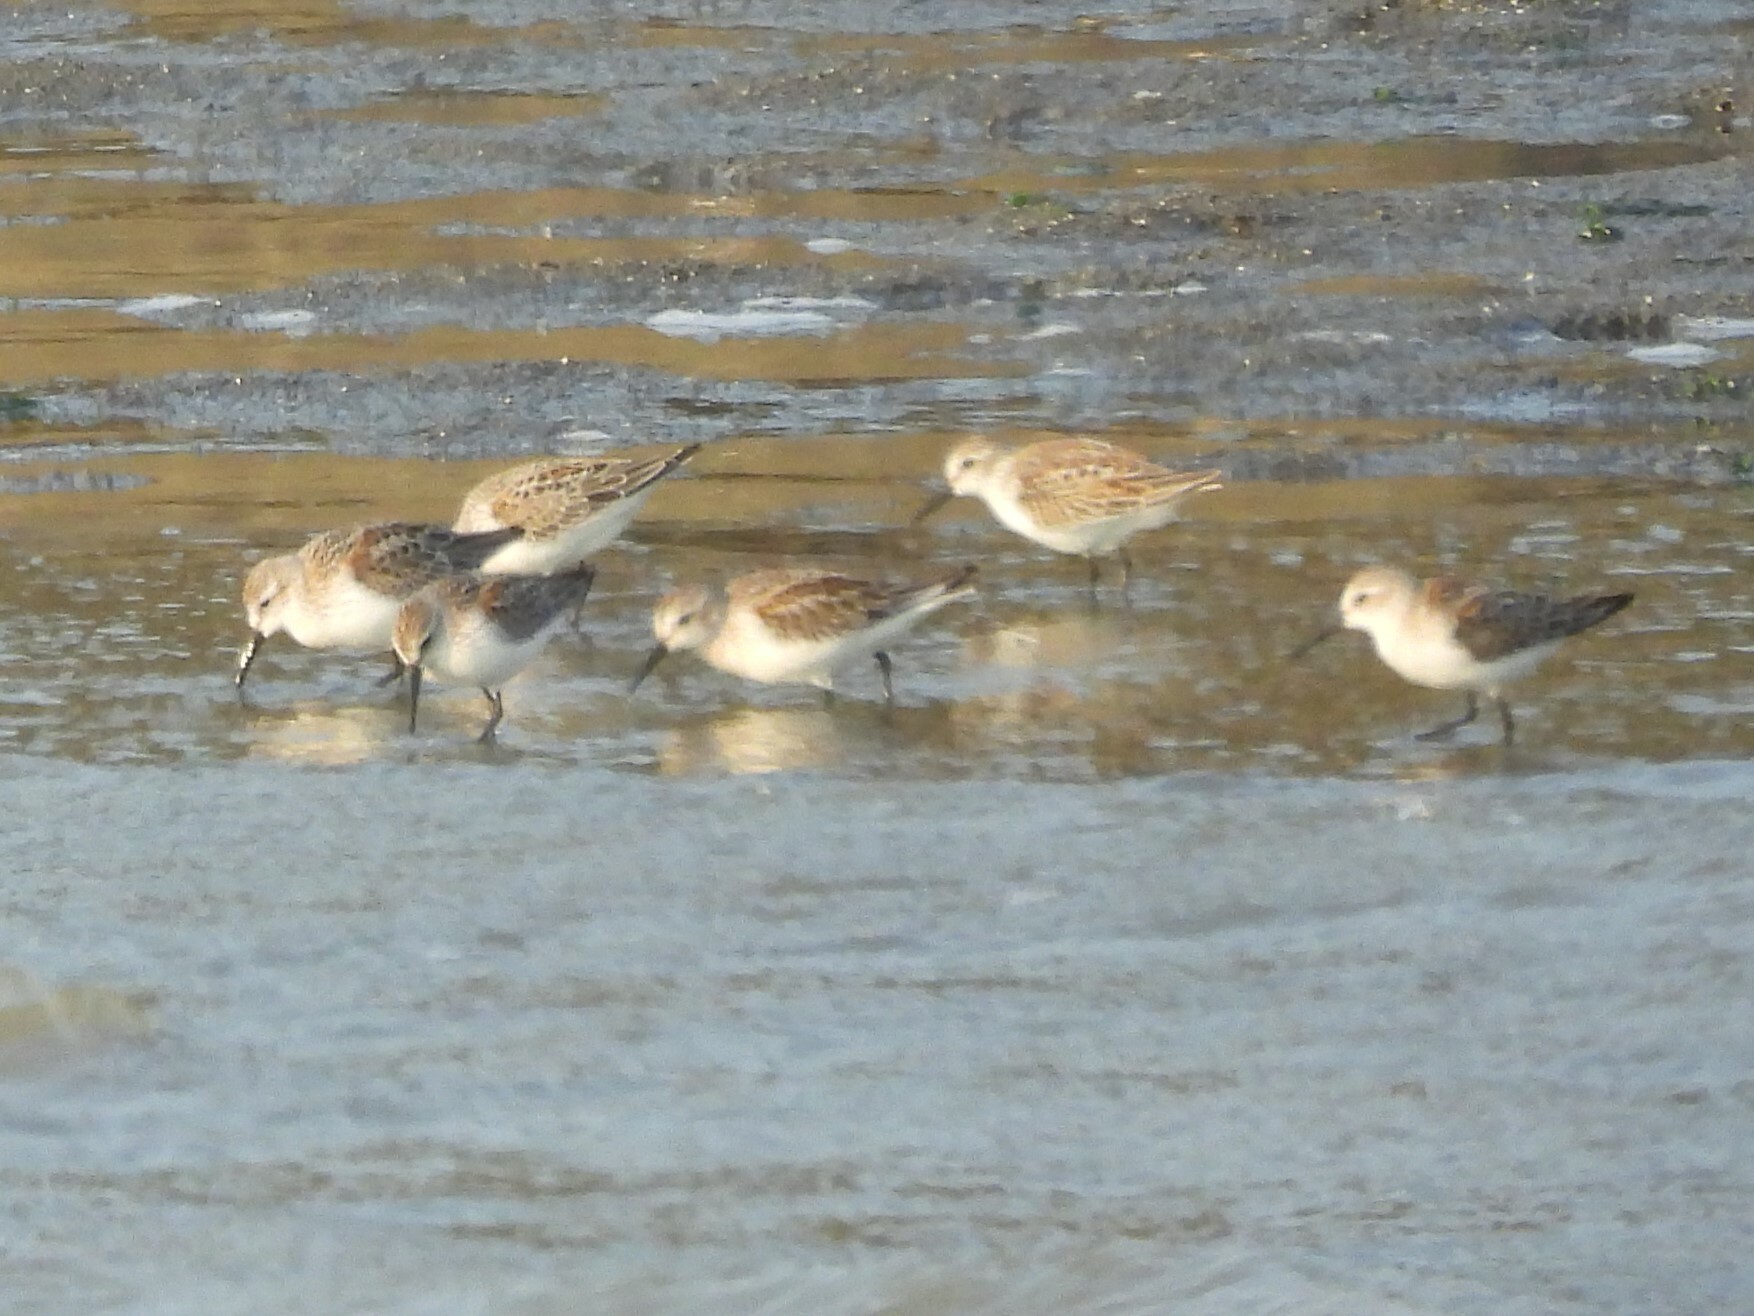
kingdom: Animalia
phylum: Chordata
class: Aves
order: Charadriiformes
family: Scolopacidae
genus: Calidris
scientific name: Calidris mauri
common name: Western sandpiper
